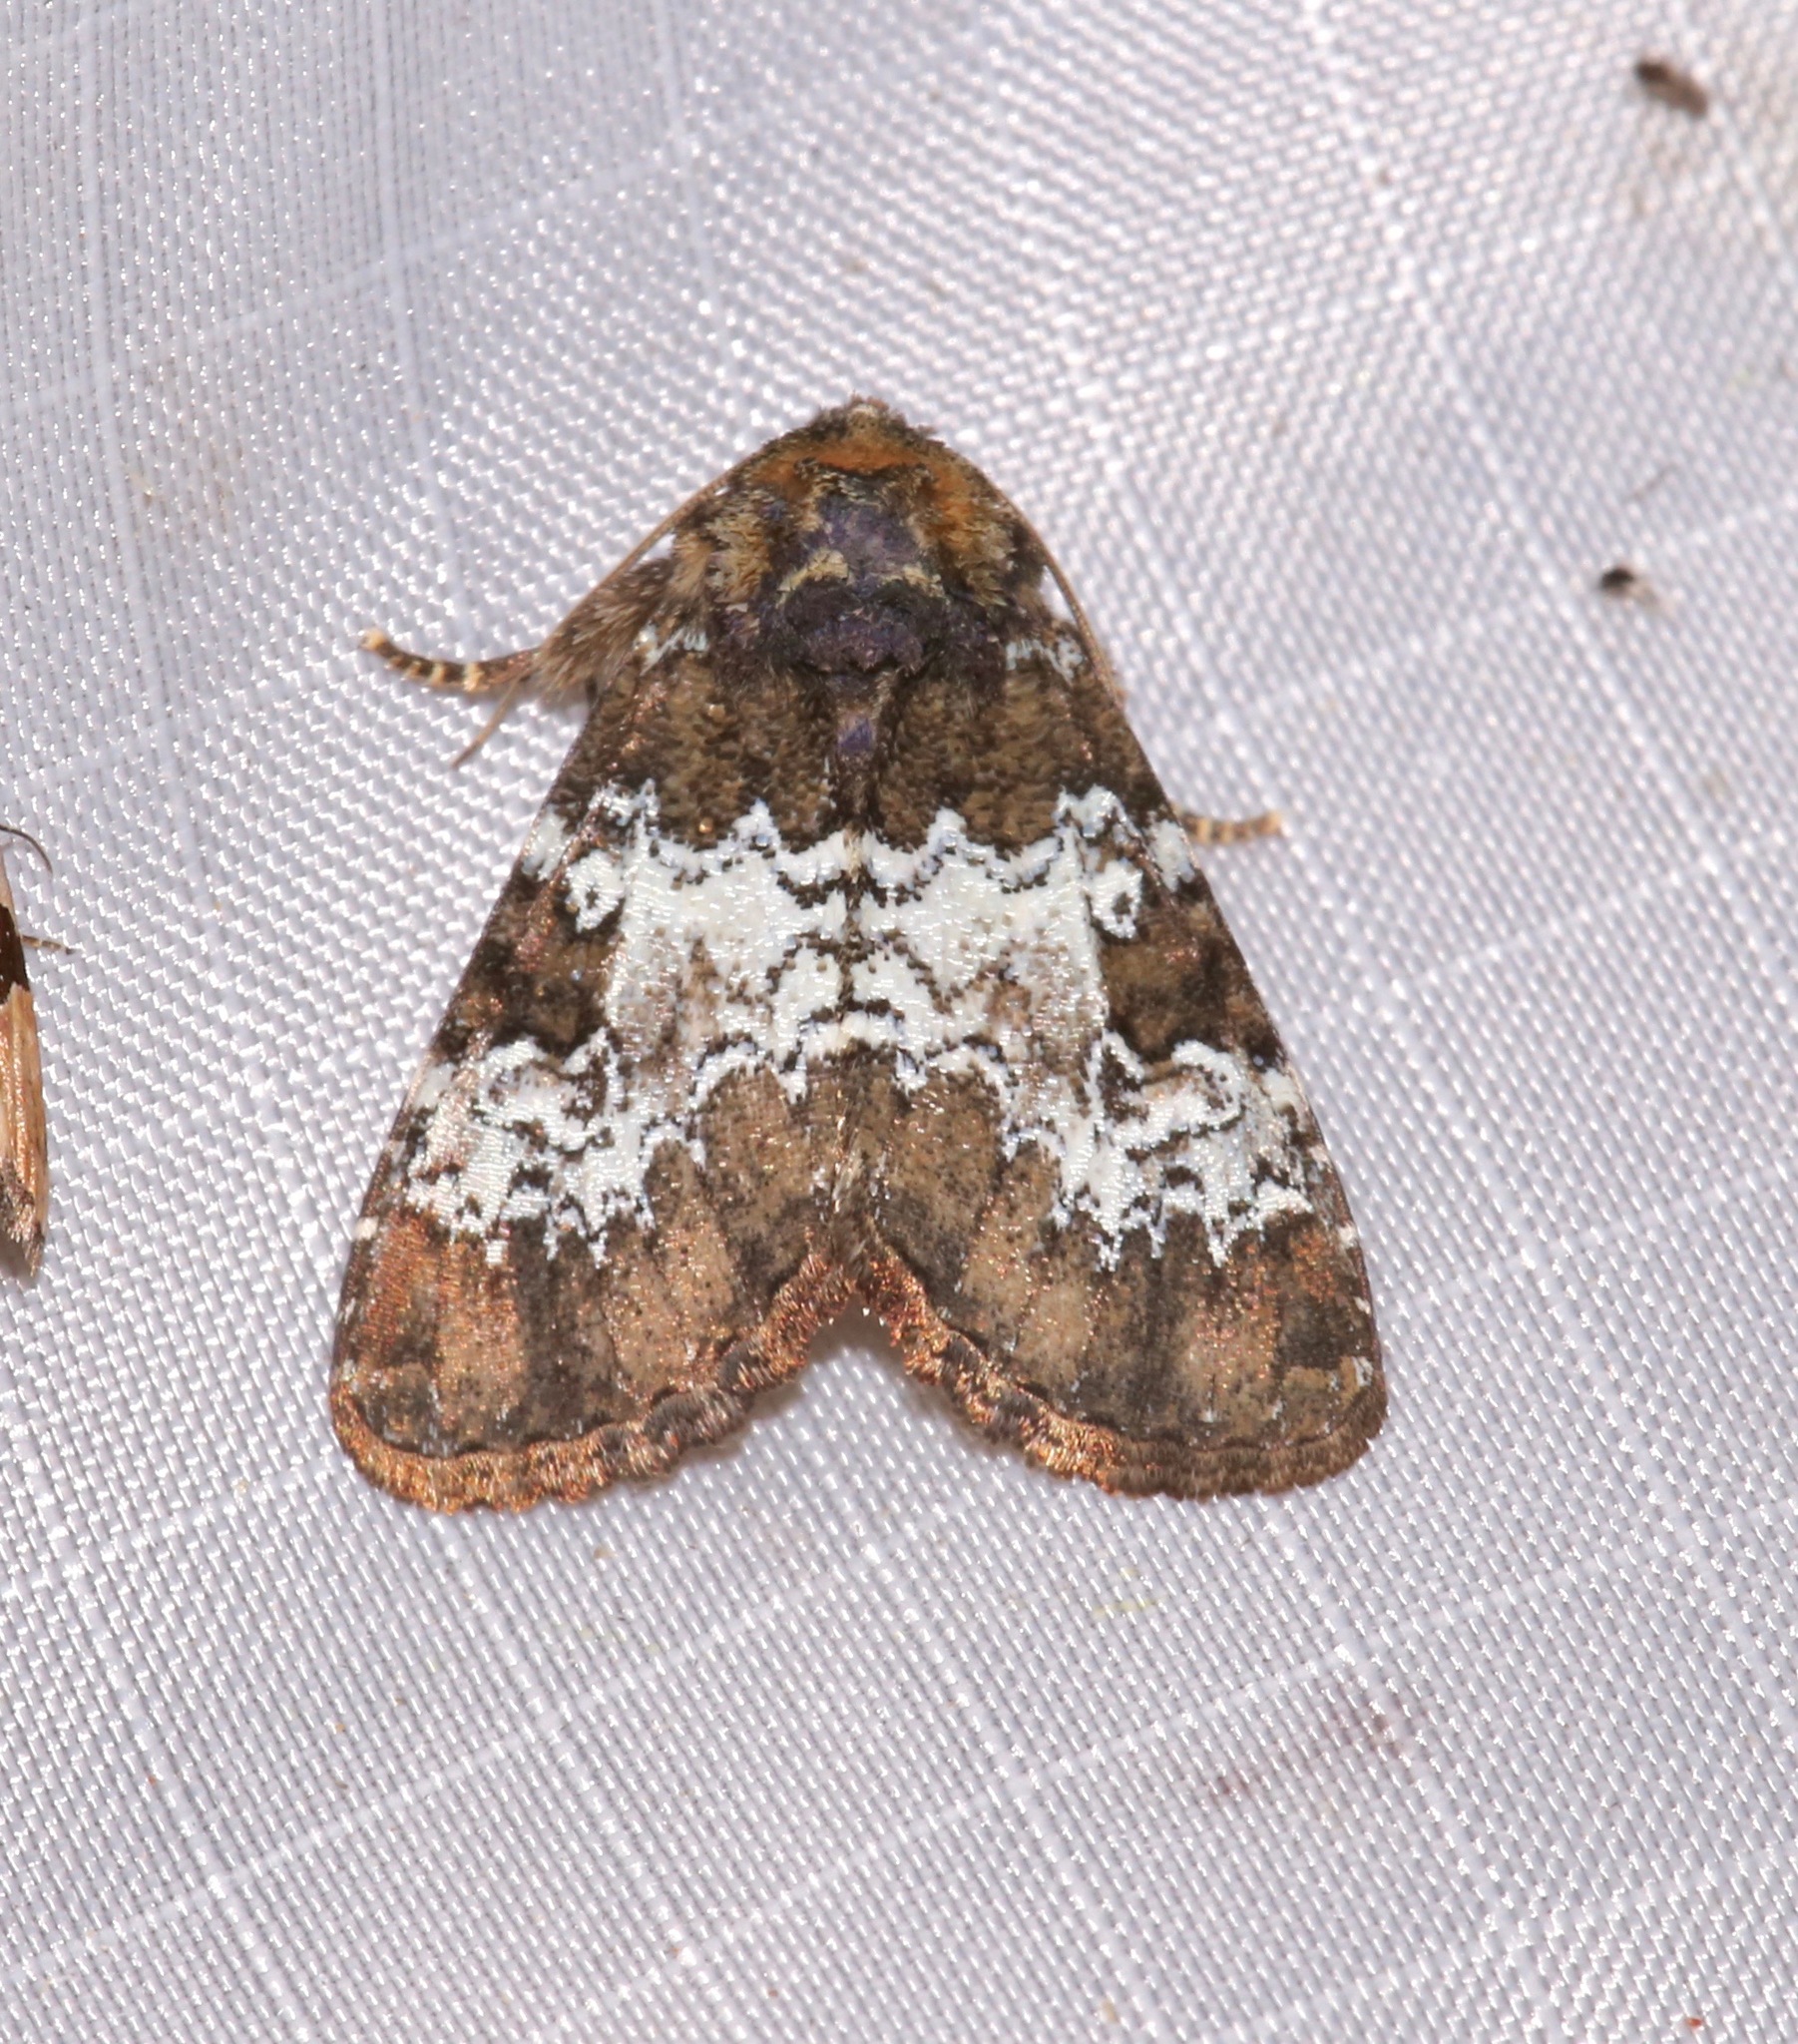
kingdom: Animalia
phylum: Arthropoda
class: Insecta
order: Lepidoptera
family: Noctuidae
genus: Euamiana
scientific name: Euamiana contrasta
